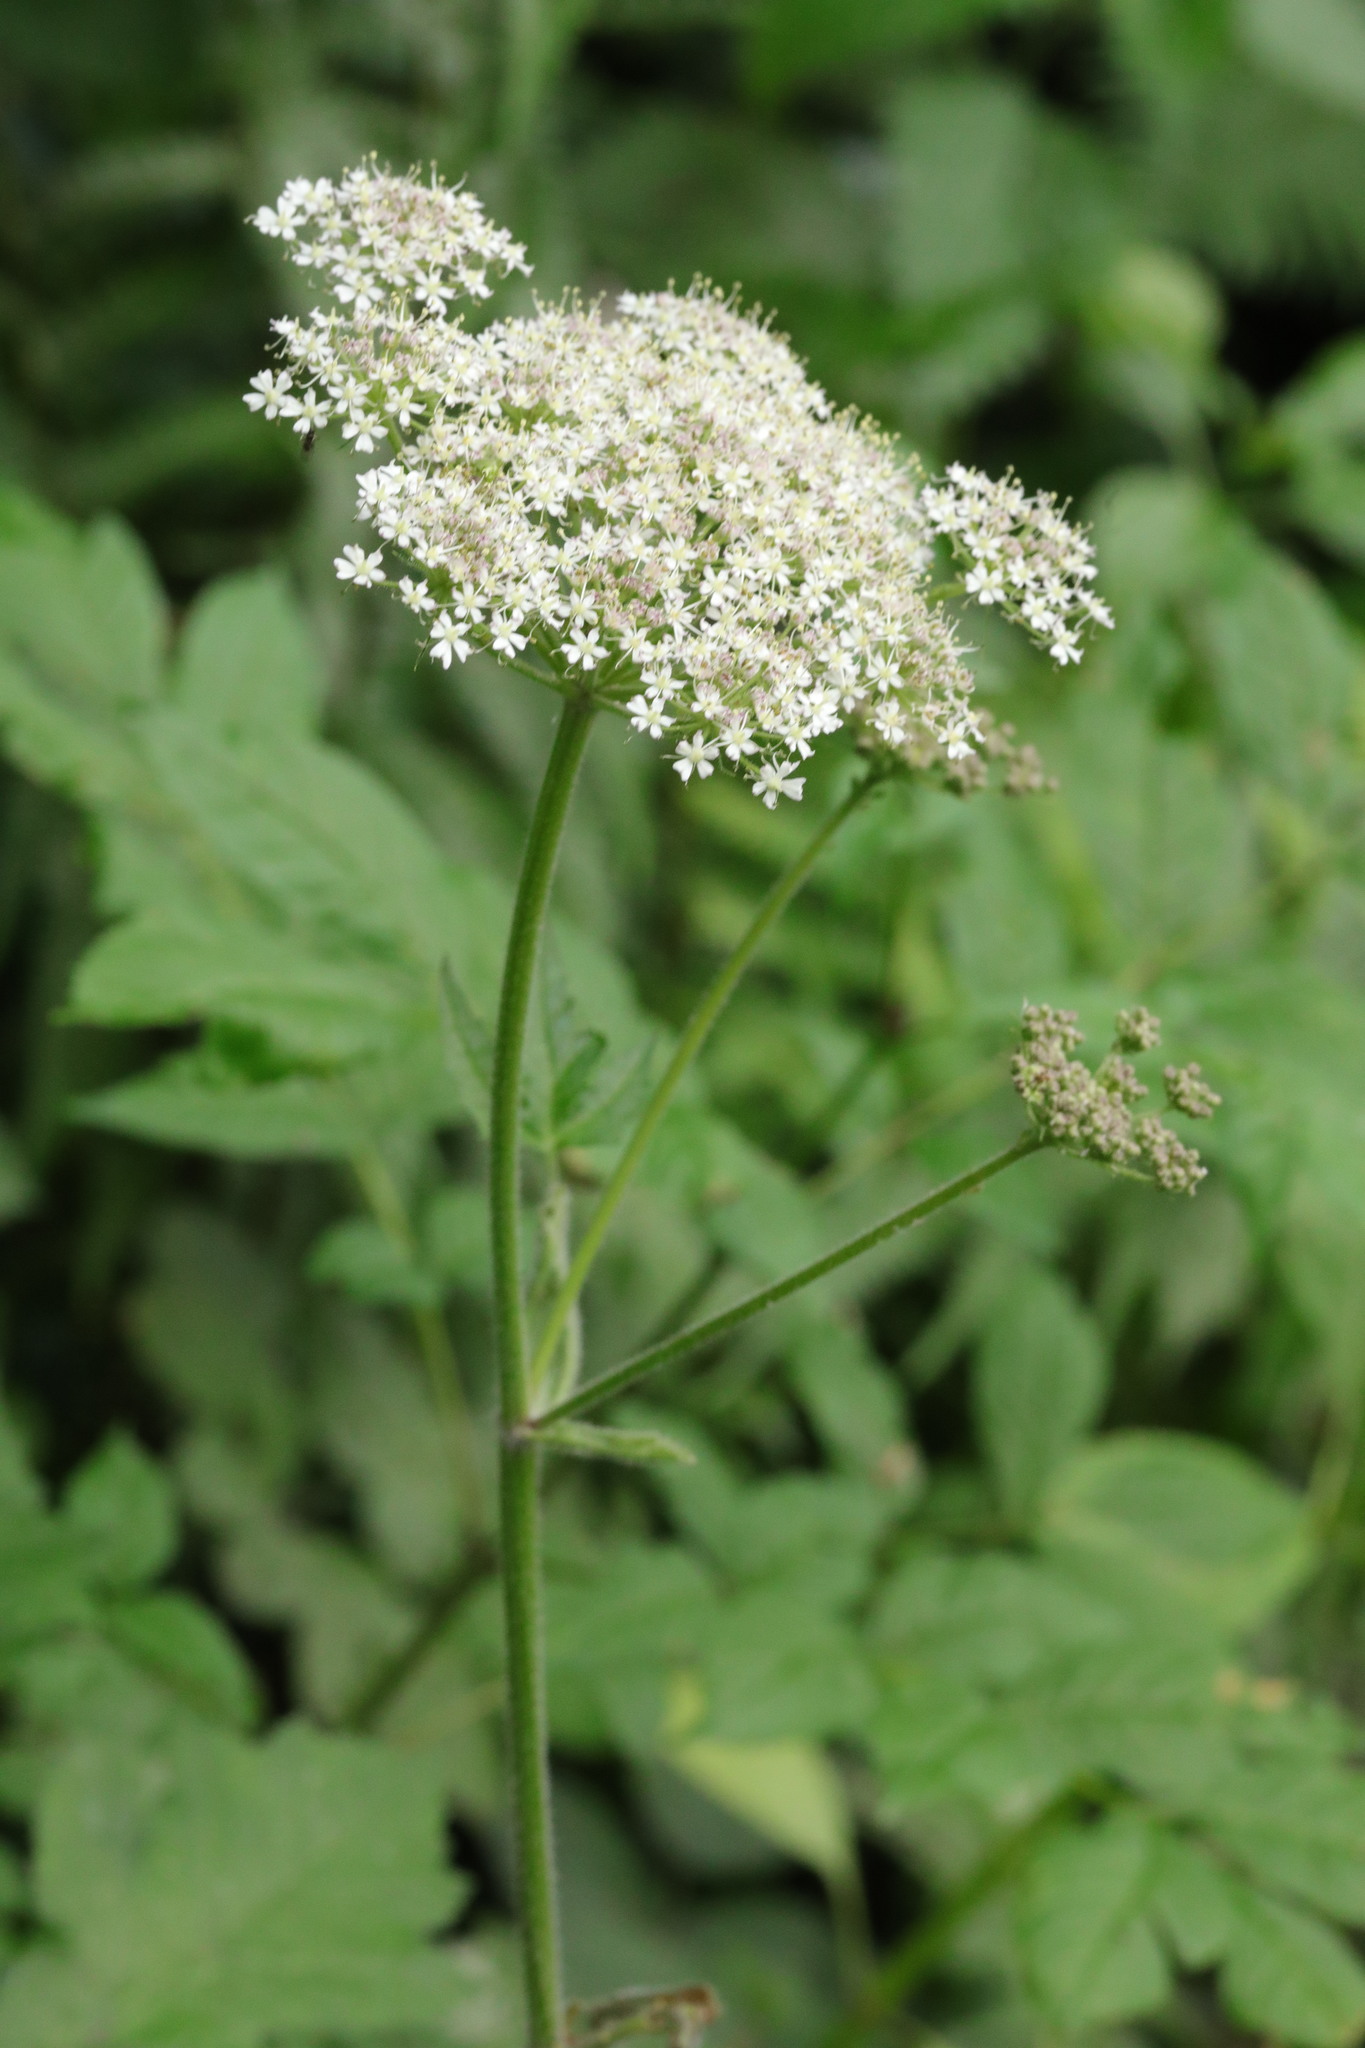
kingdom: Plantae
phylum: Tracheophyta
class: Magnoliopsida
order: Apiales
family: Apiaceae
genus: Heracleum
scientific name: Heracleum sphondylium
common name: Hogweed
